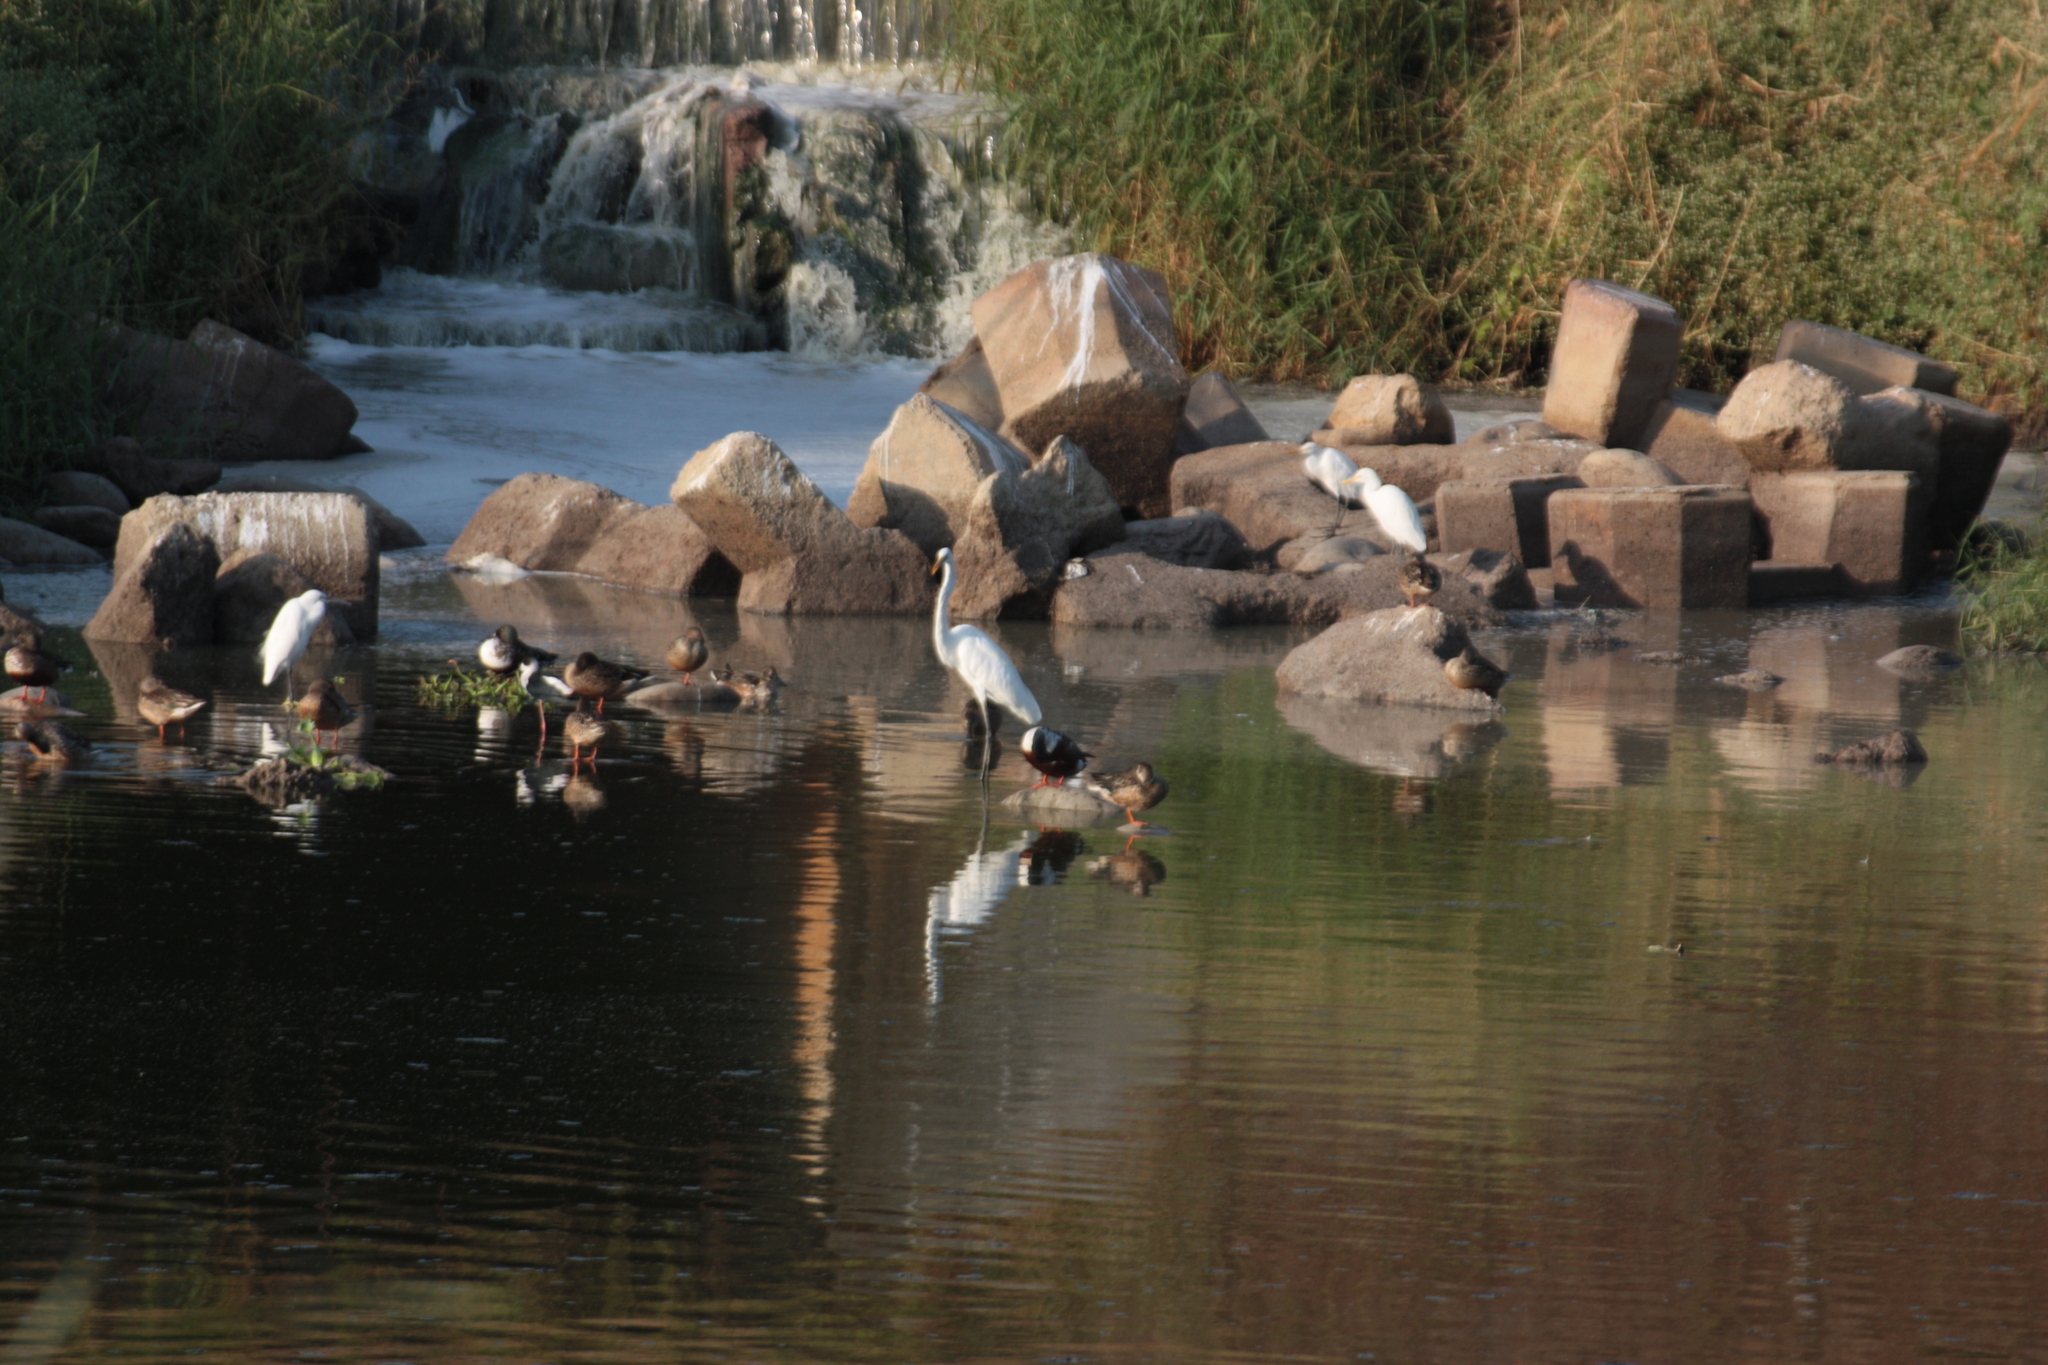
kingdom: Animalia
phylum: Chordata
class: Aves
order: Pelecaniformes
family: Ardeidae
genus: Ardea
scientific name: Ardea alba
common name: Great egret
